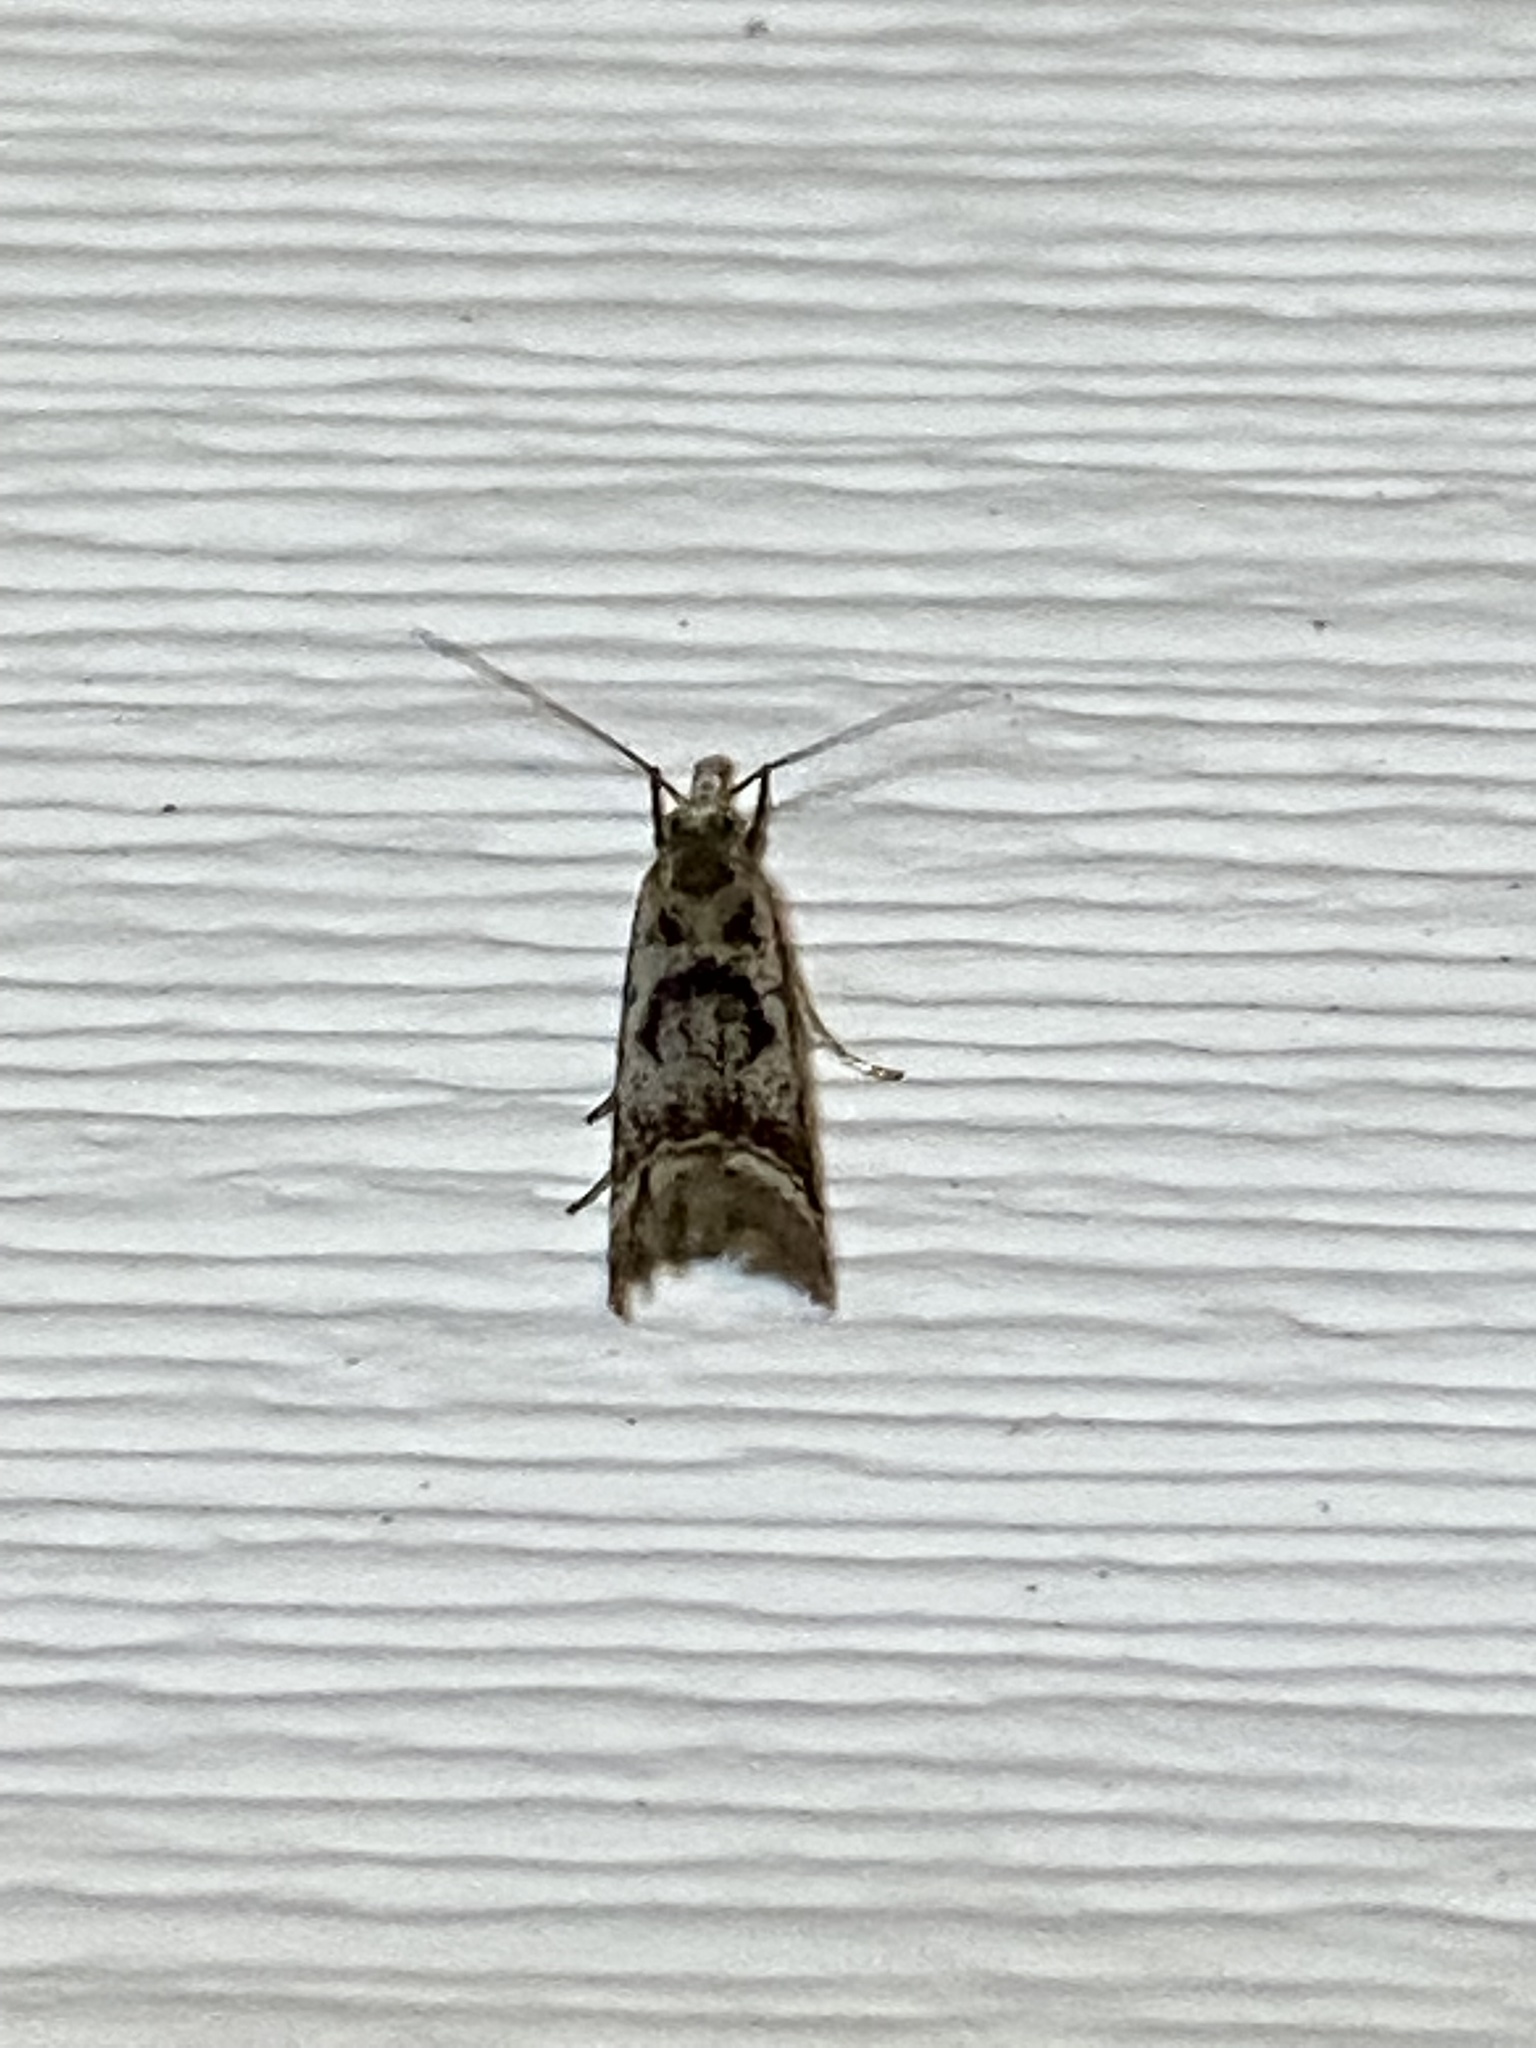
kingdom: Animalia
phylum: Arthropoda
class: Insecta
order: Lepidoptera
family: Crambidae
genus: Microcrambus
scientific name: Microcrambus elegans
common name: Elegant grass-veneer
